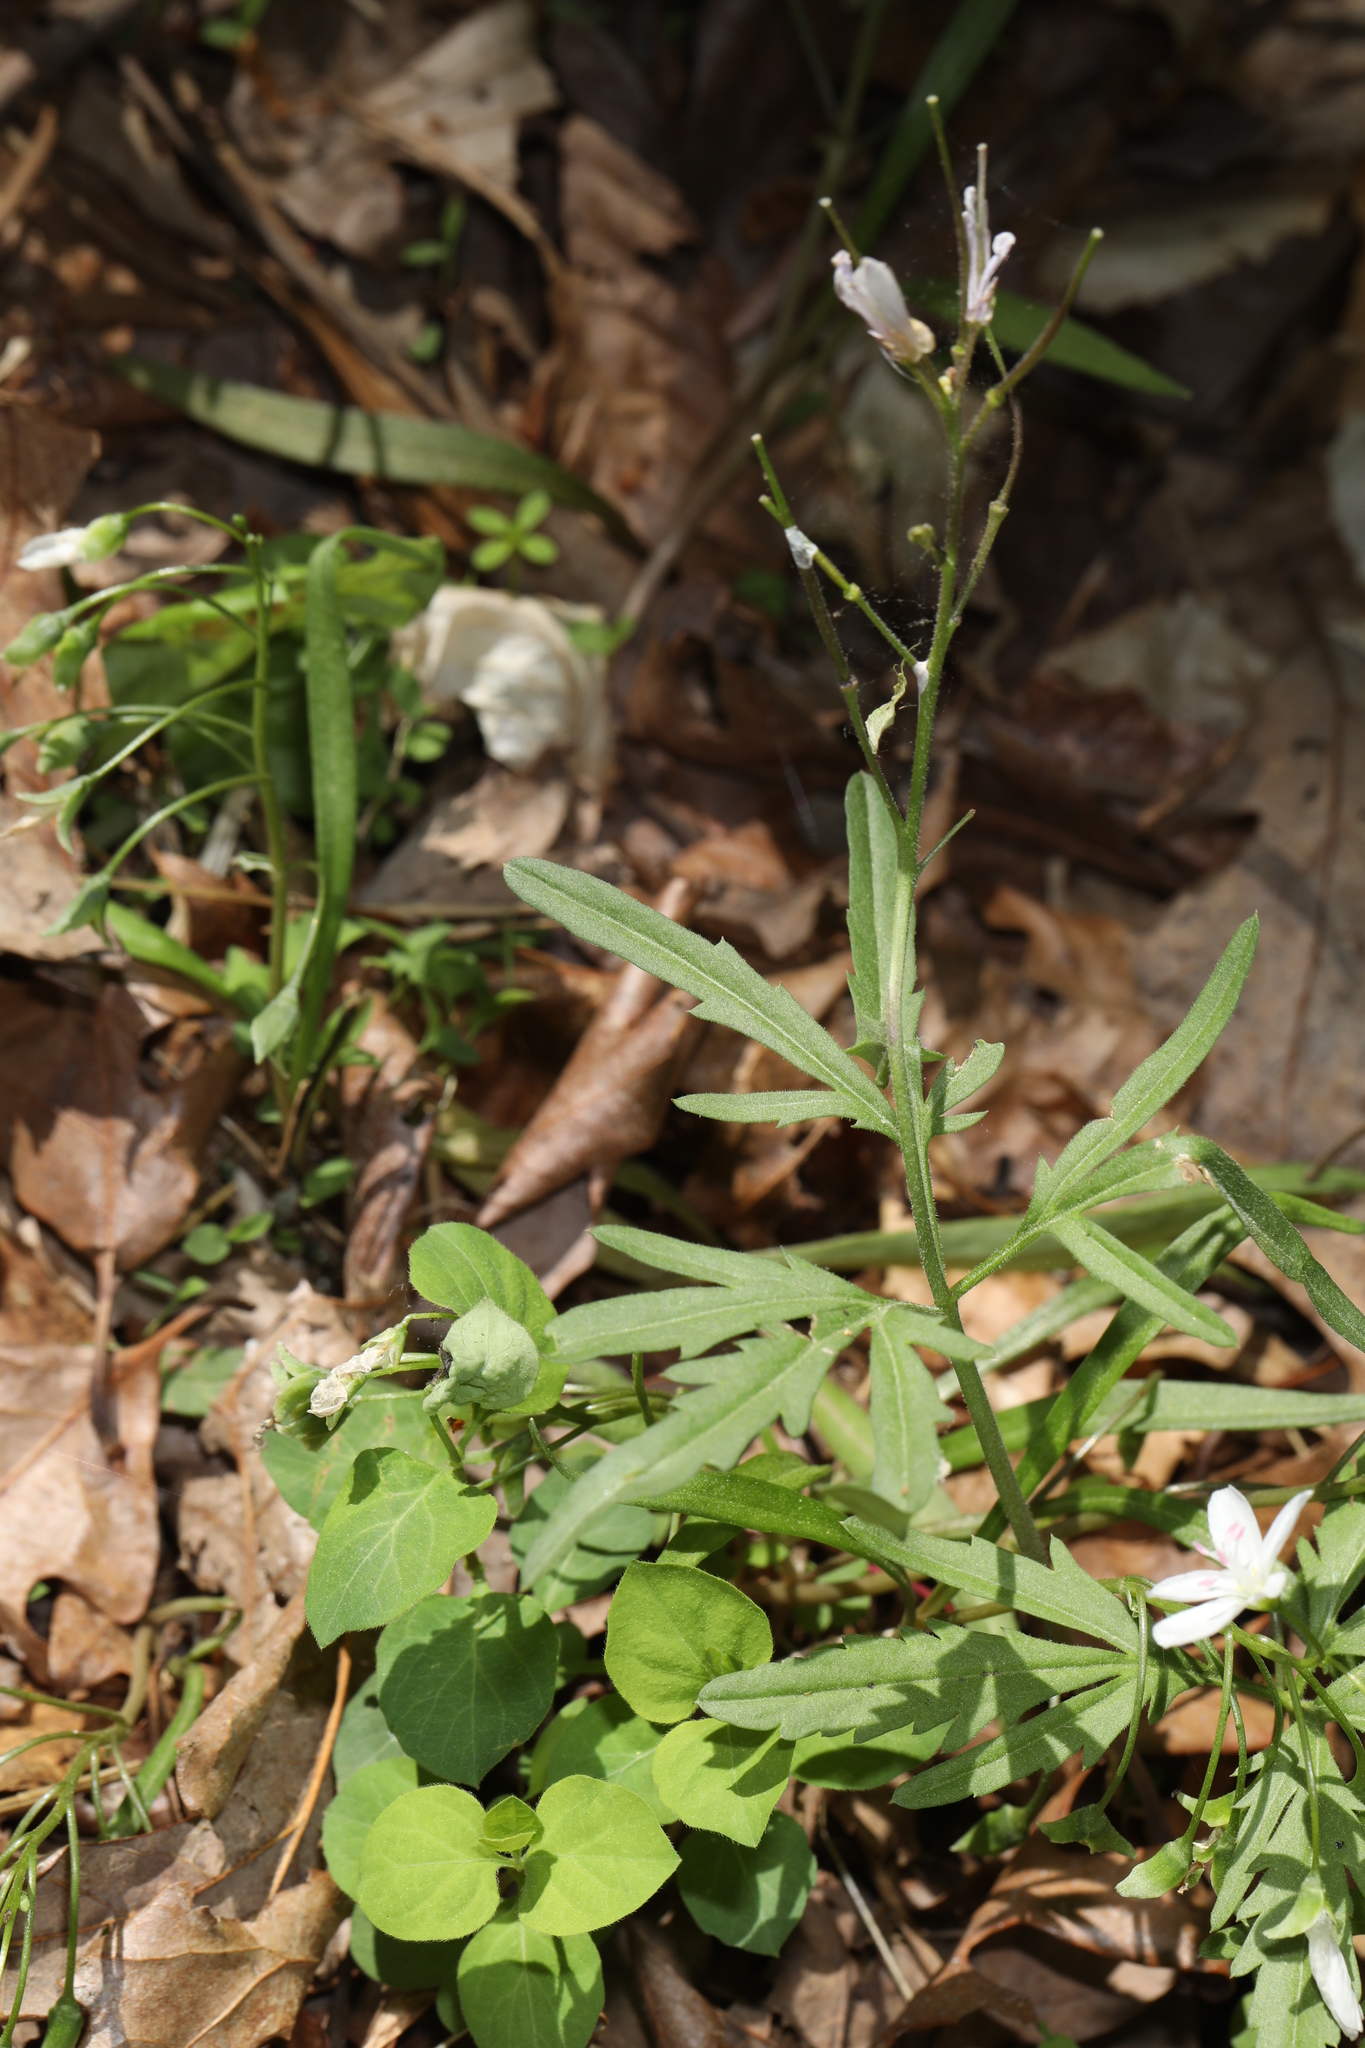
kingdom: Plantae
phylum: Tracheophyta
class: Magnoliopsida
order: Brassicales
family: Brassicaceae
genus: Cardamine
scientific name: Cardamine concatenata
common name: Cut-leaf toothcup
